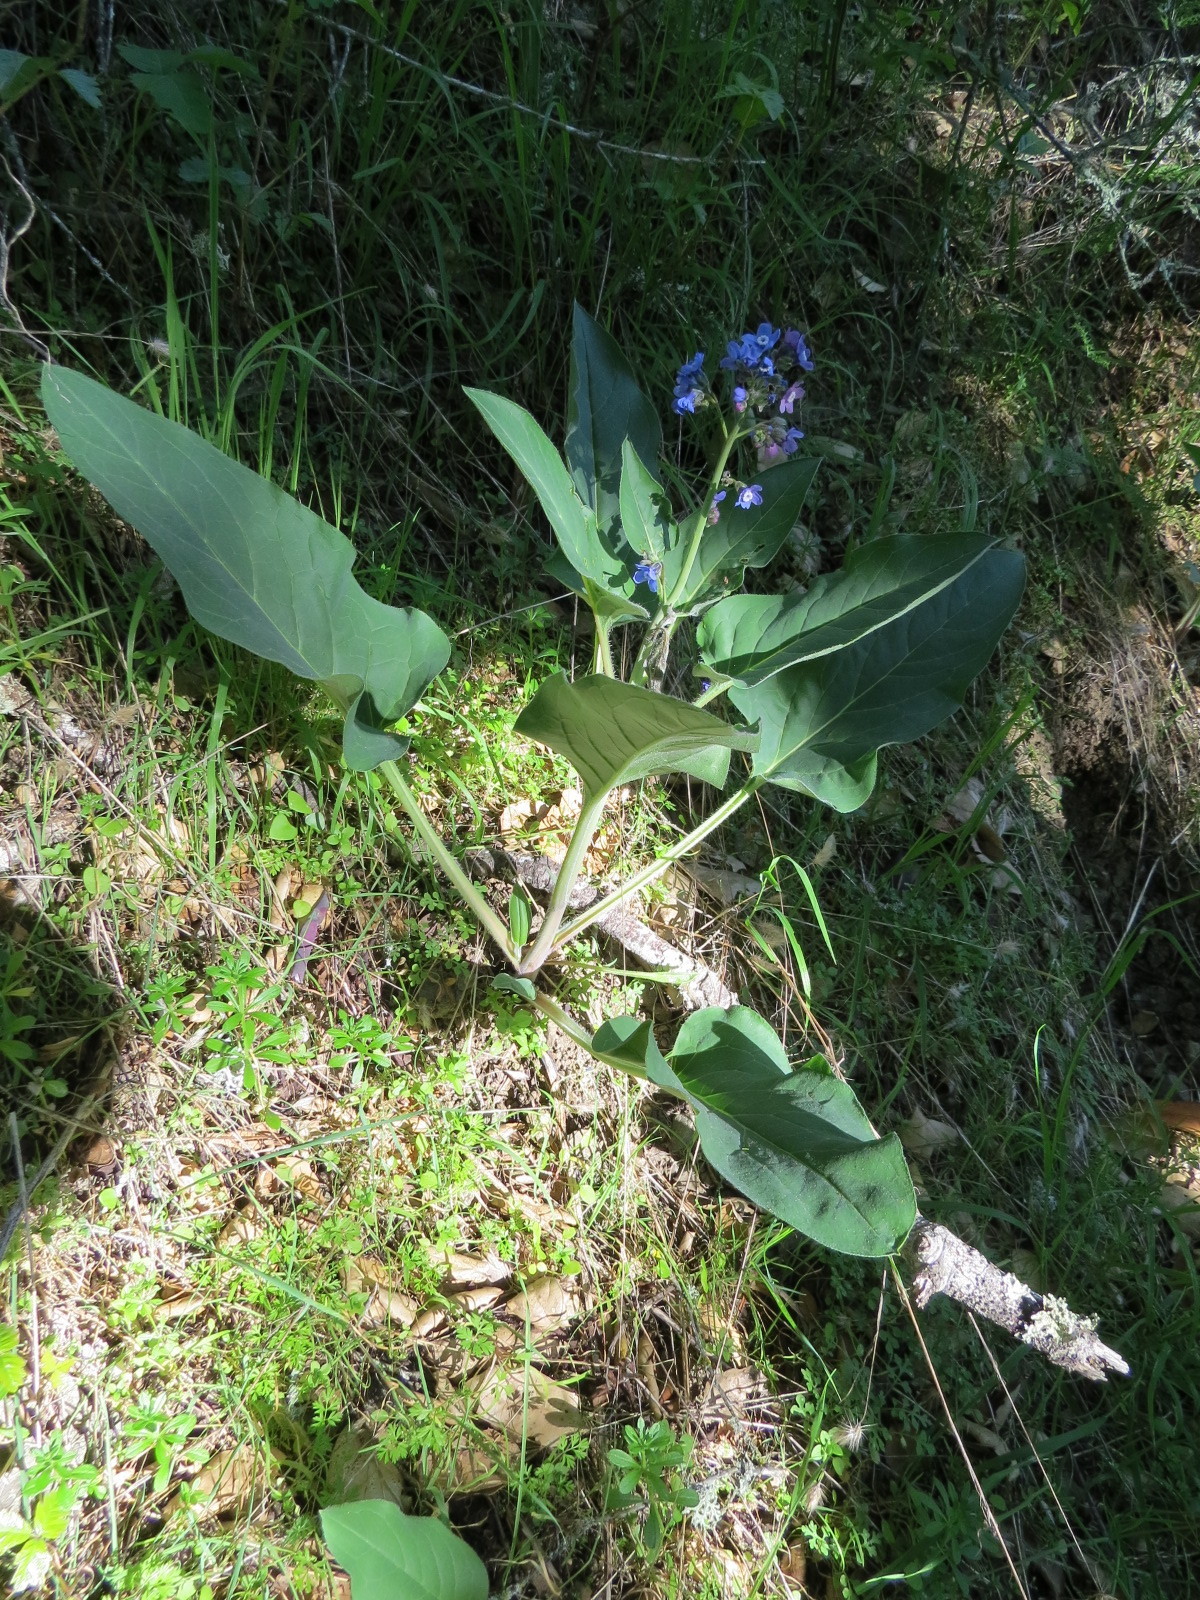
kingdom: Plantae
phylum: Tracheophyta
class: Magnoliopsida
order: Boraginales
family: Boraginaceae
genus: Adelinia
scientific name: Adelinia grande
